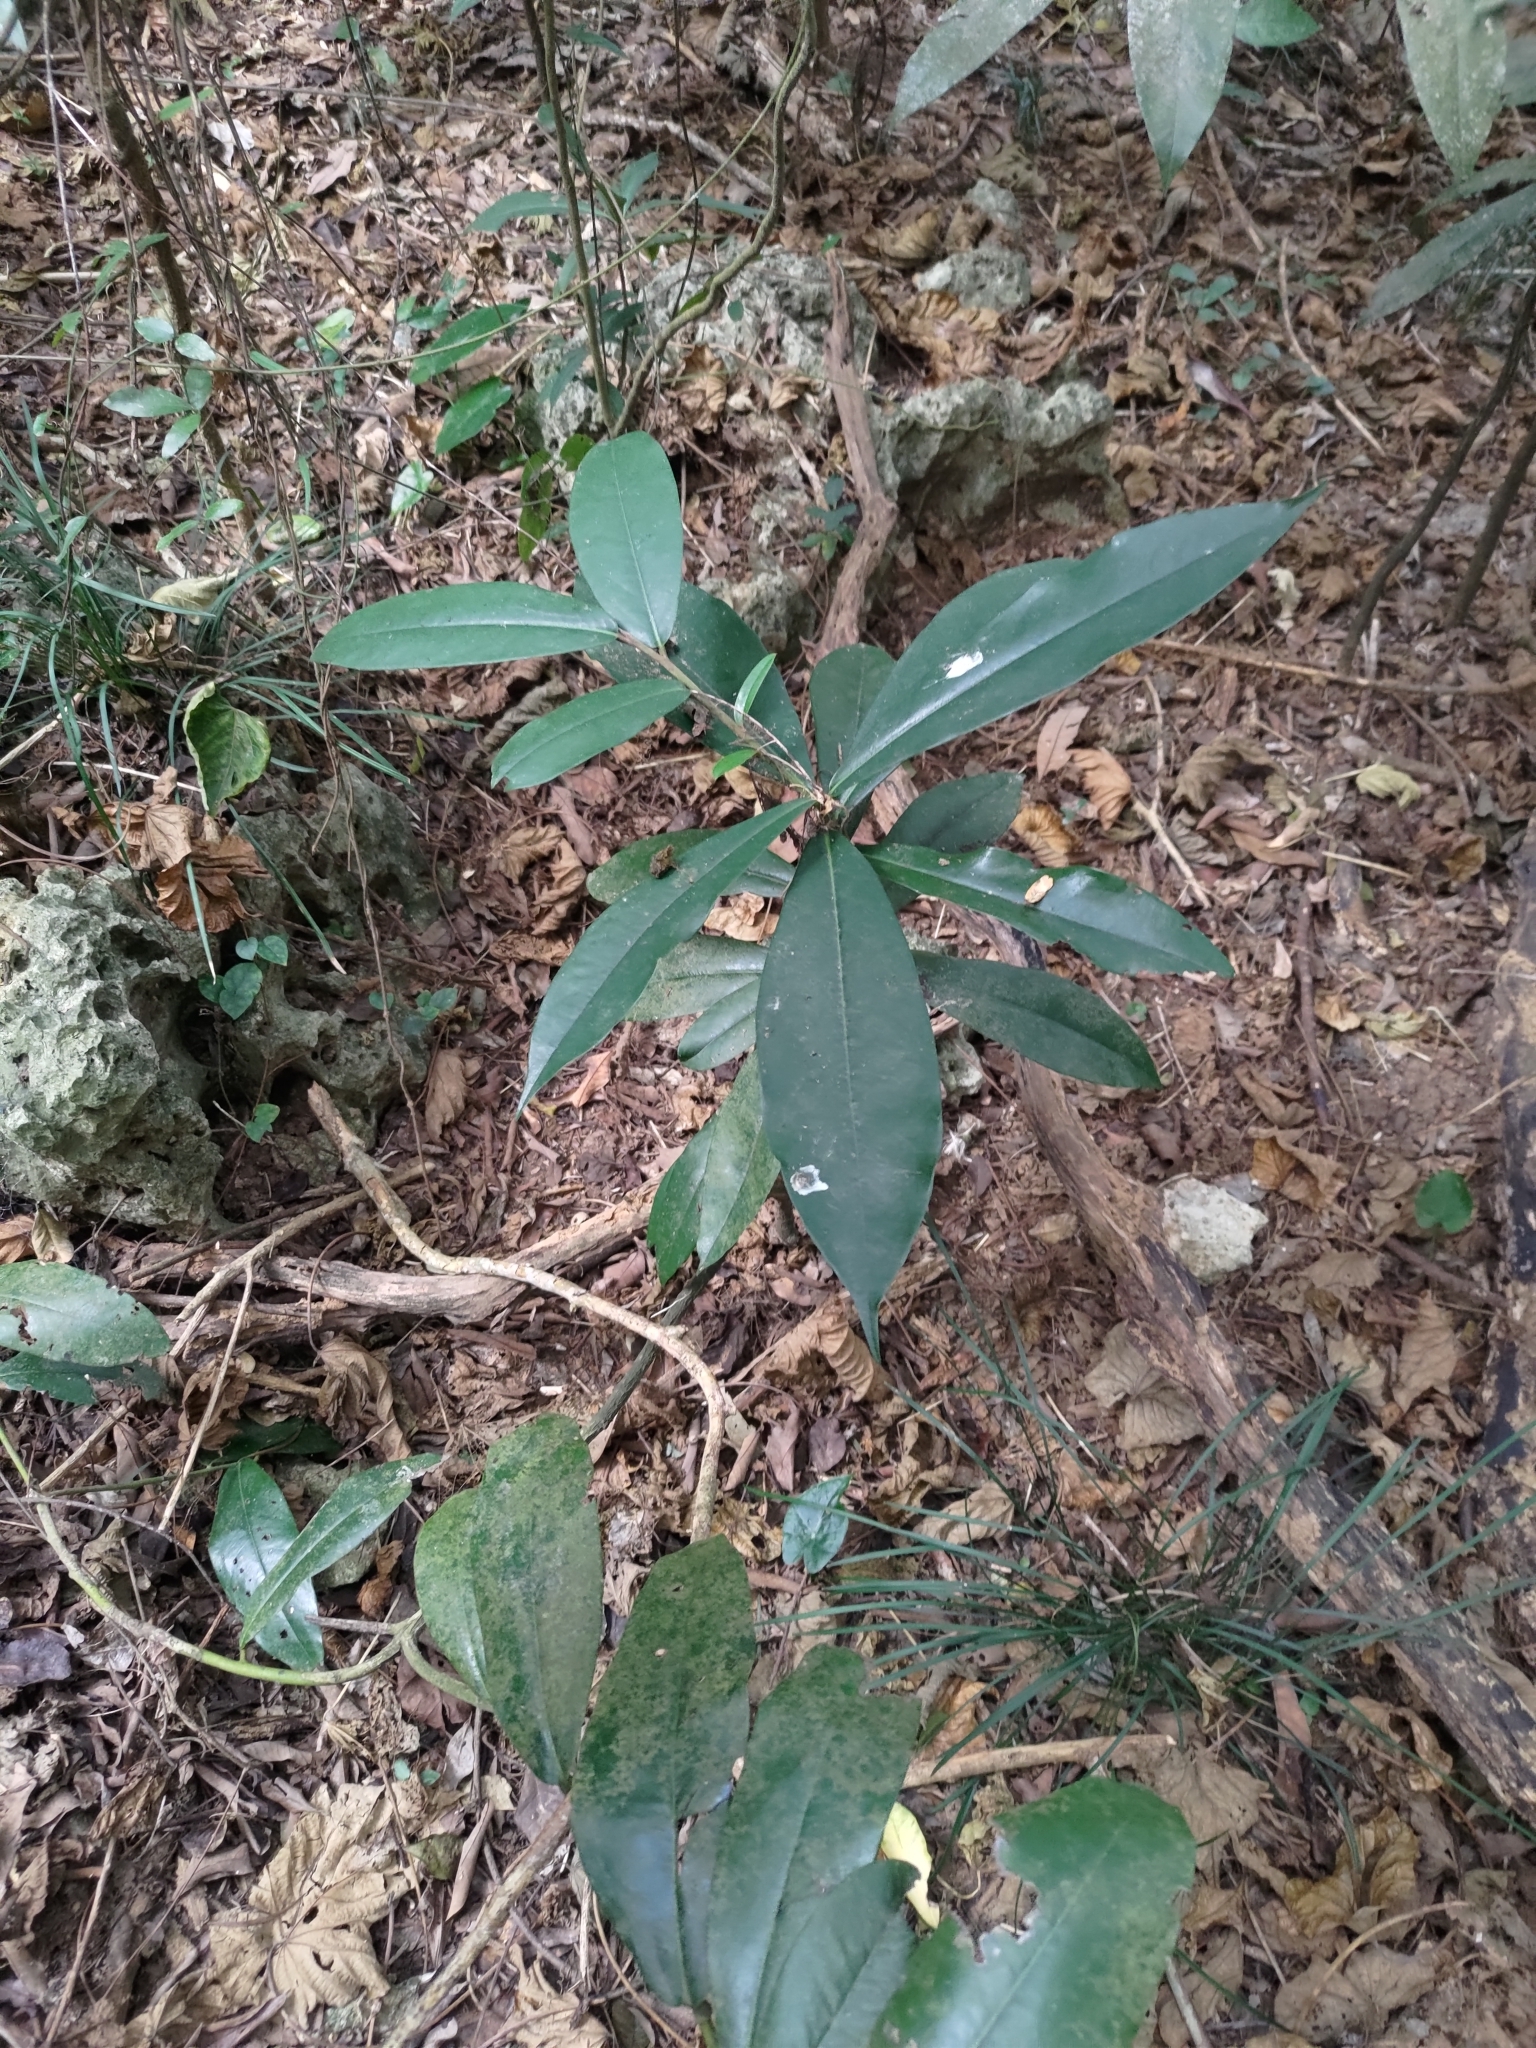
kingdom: Plantae
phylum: Tracheophyta
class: Magnoliopsida
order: Ericales
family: Ebenaceae
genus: Diospyros
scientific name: Diospyros blancoi
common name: Mabola-tree
